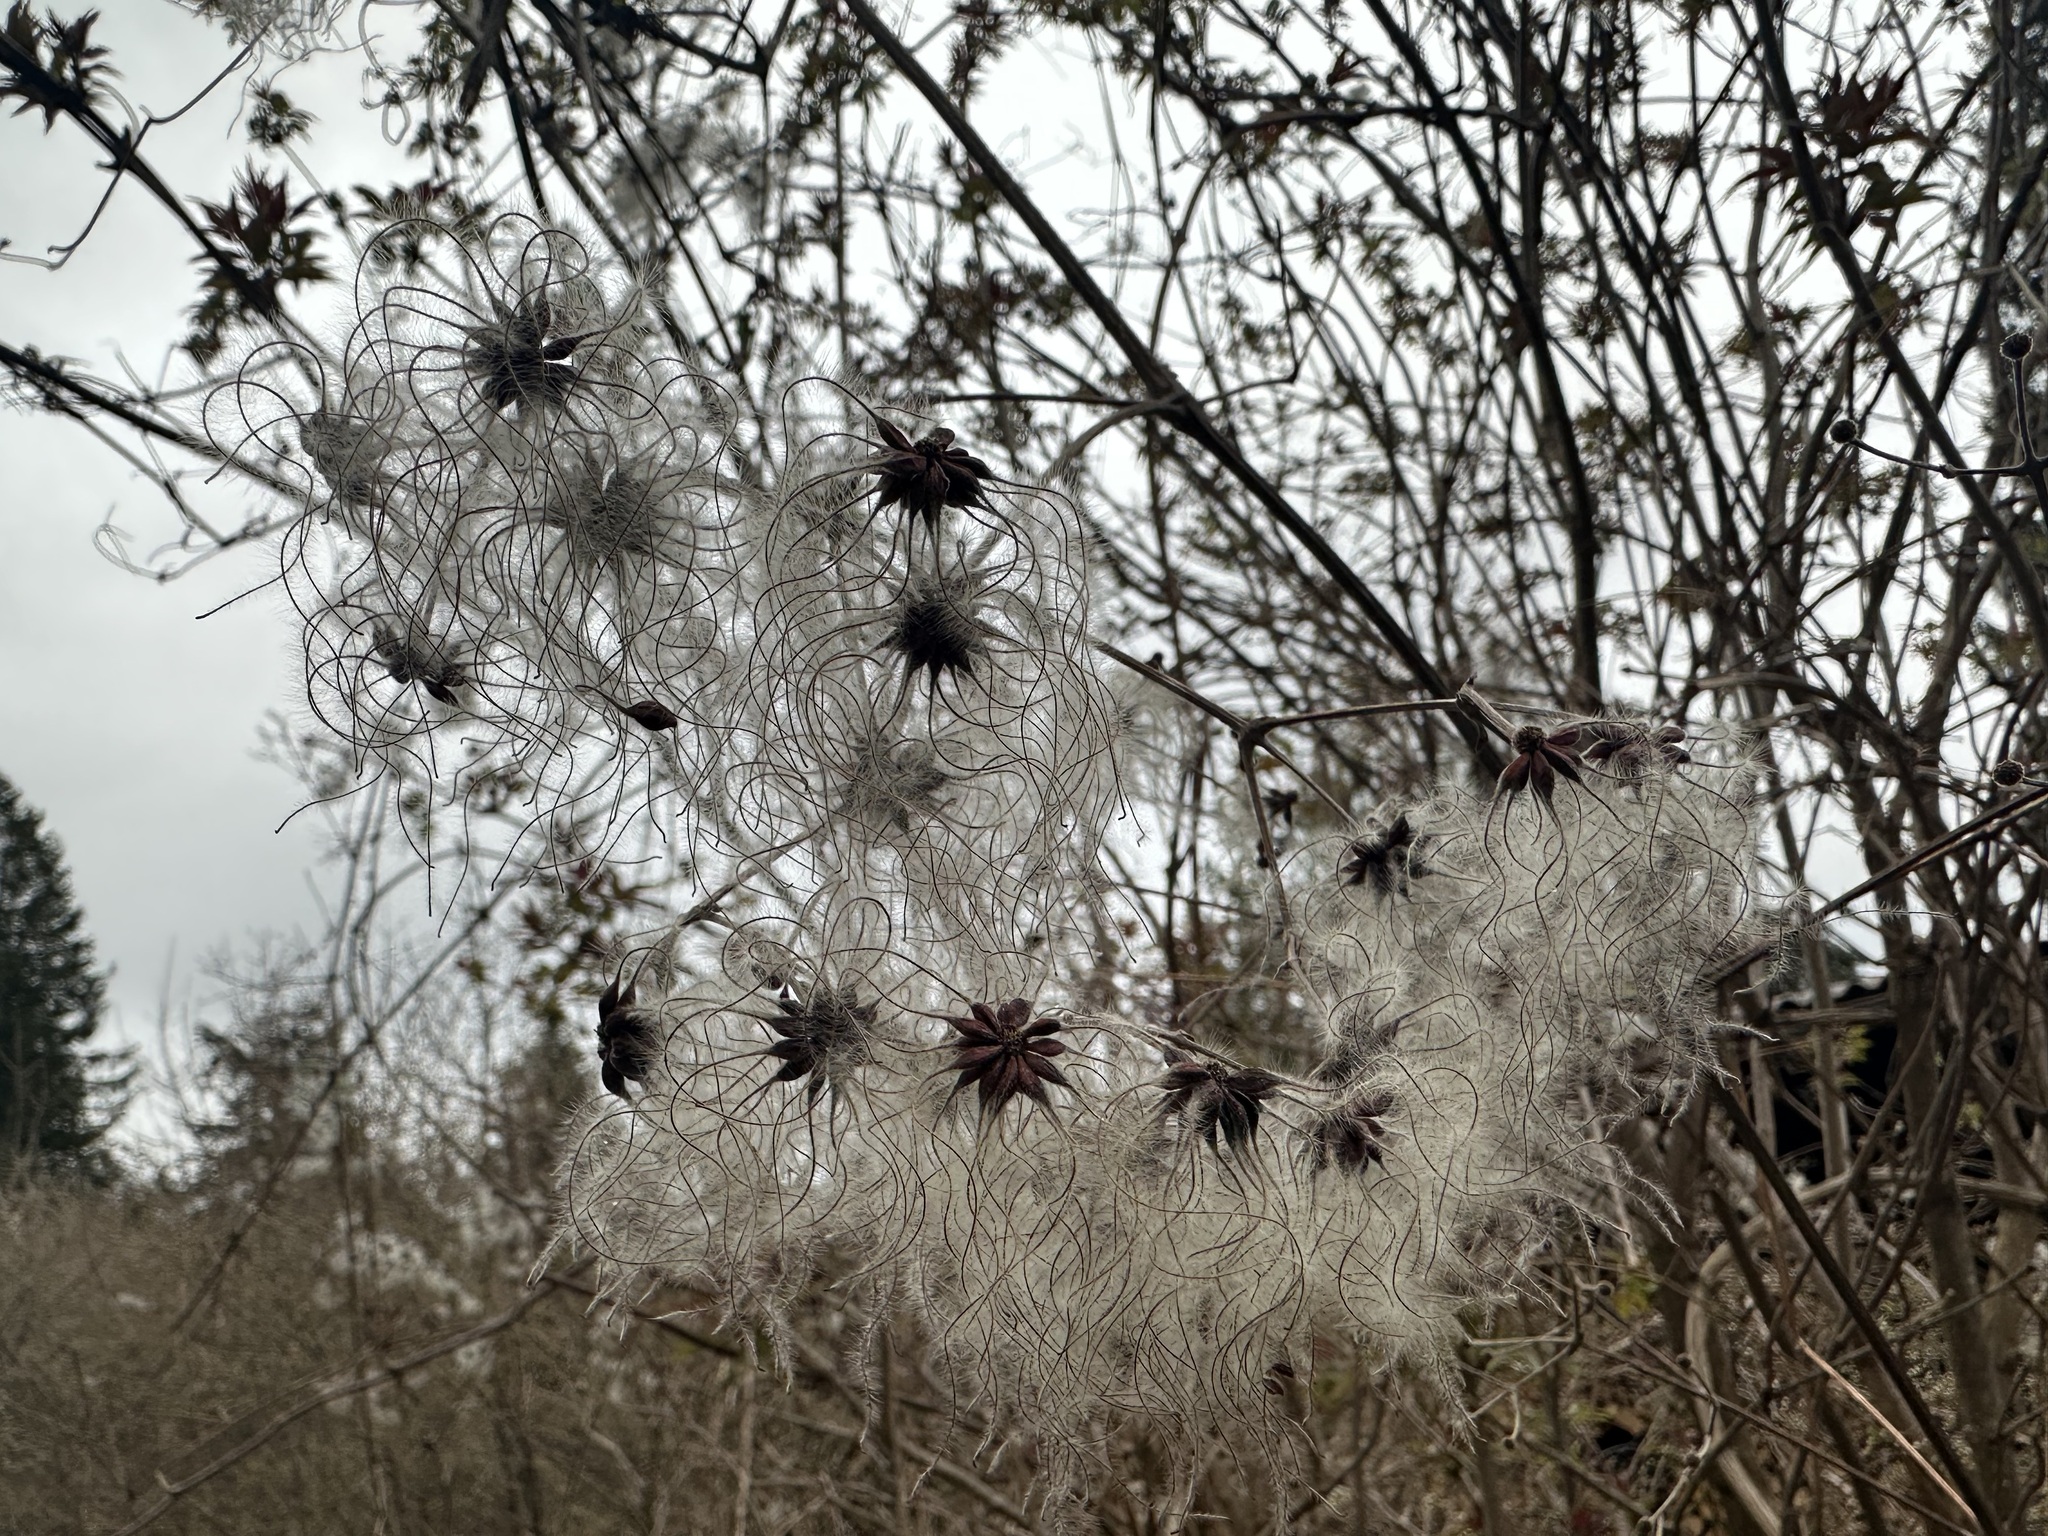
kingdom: Plantae
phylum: Tracheophyta
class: Magnoliopsida
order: Ranunculales
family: Ranunculaceae
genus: Clematis
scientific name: Clematis vitalba
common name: Evergreen clematis
